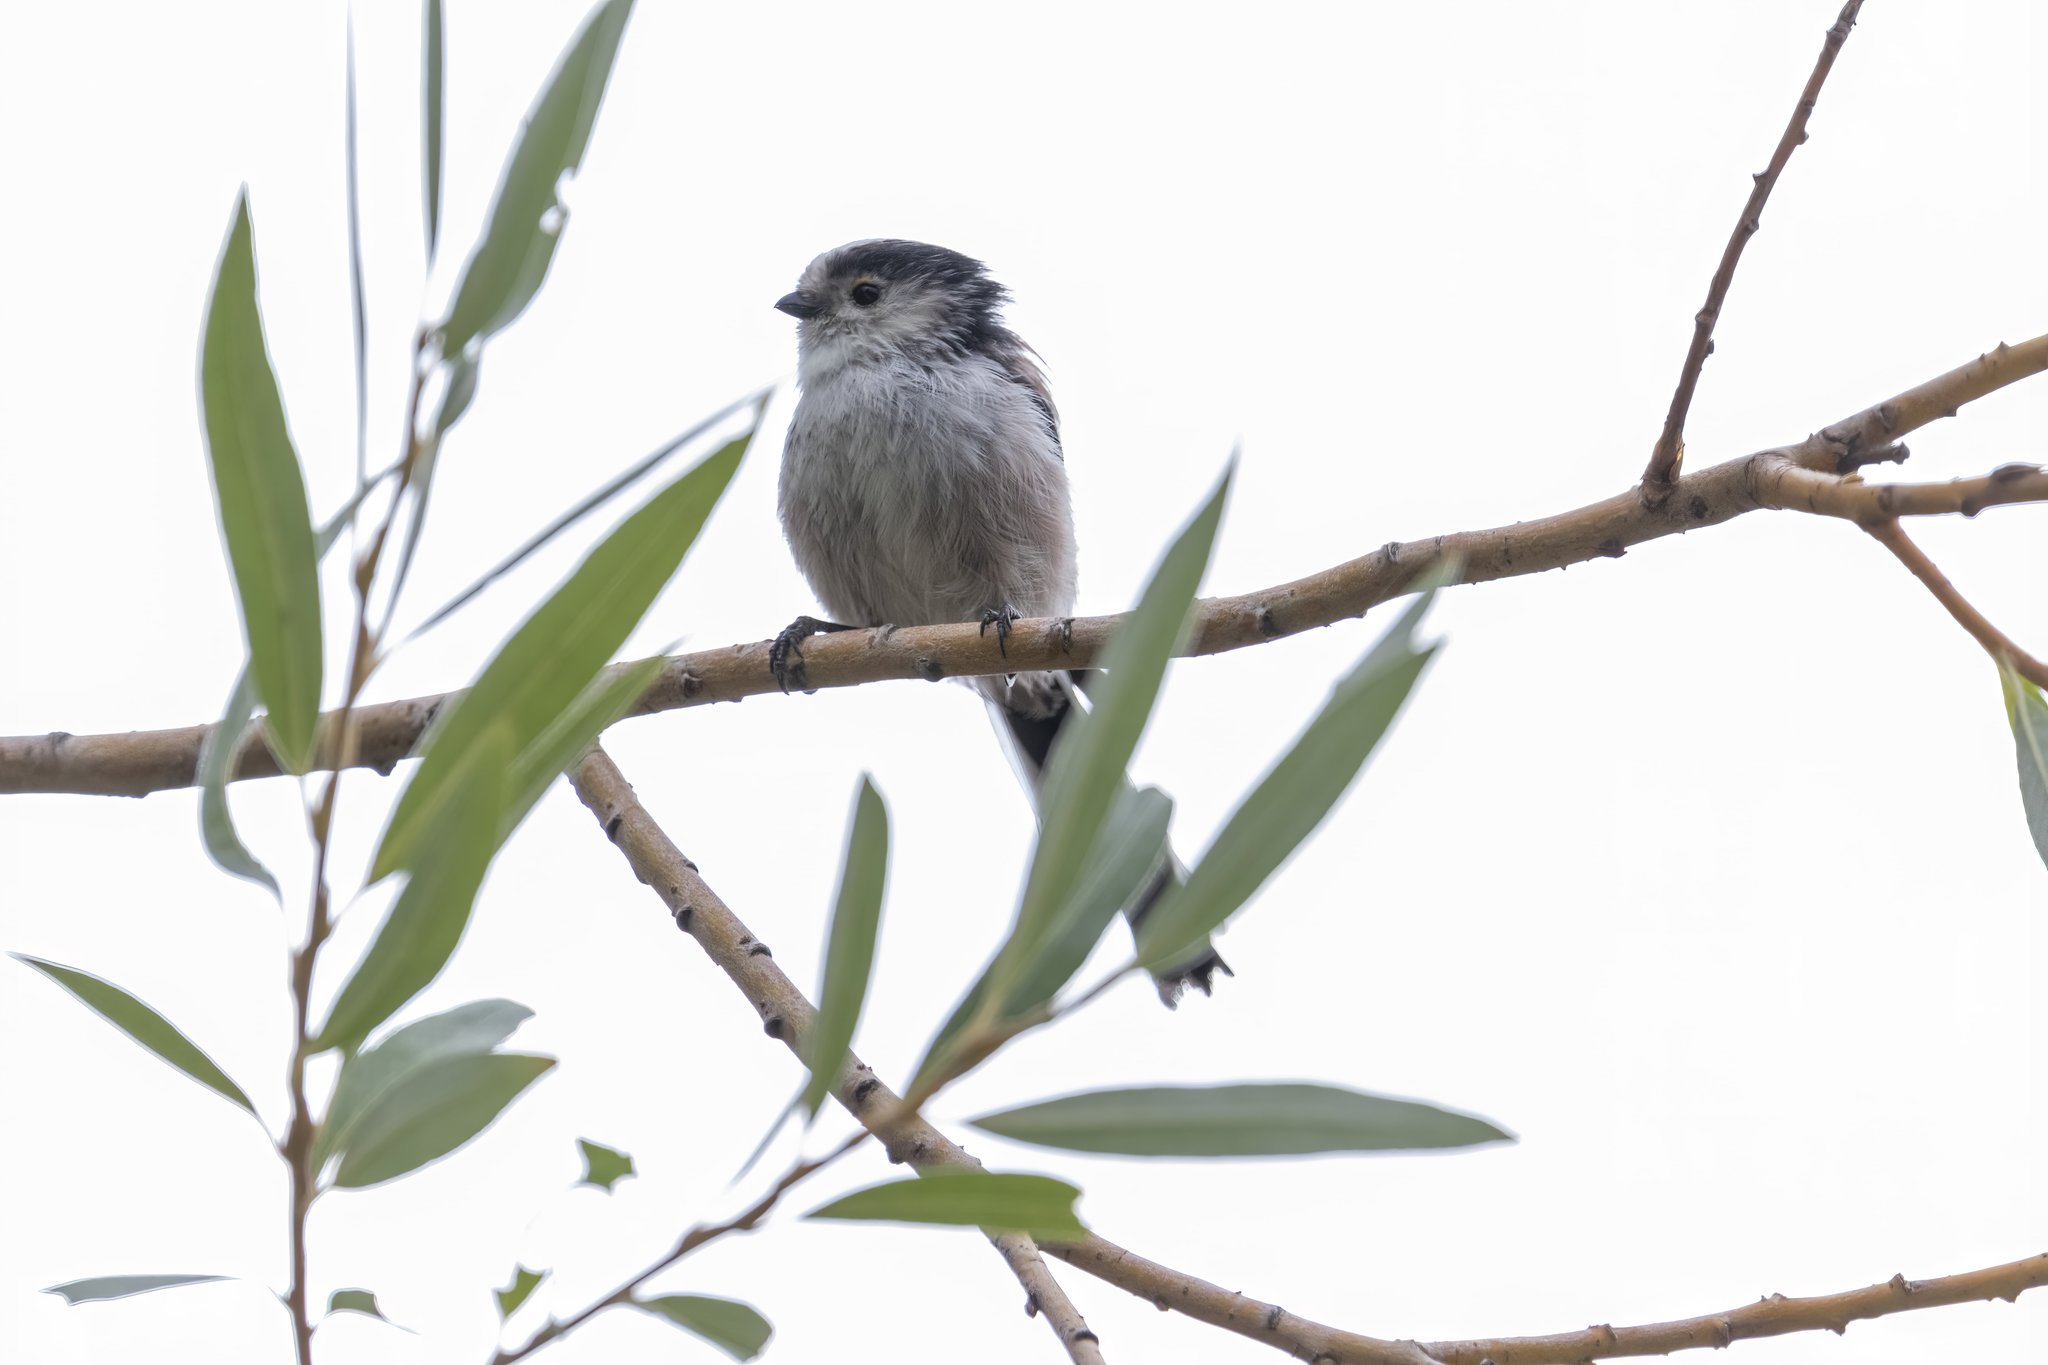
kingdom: Animalia
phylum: Chordata
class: Aves
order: Passeriformes
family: Aegithalidae
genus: Aegithalos
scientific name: Aegithalos caudatus
